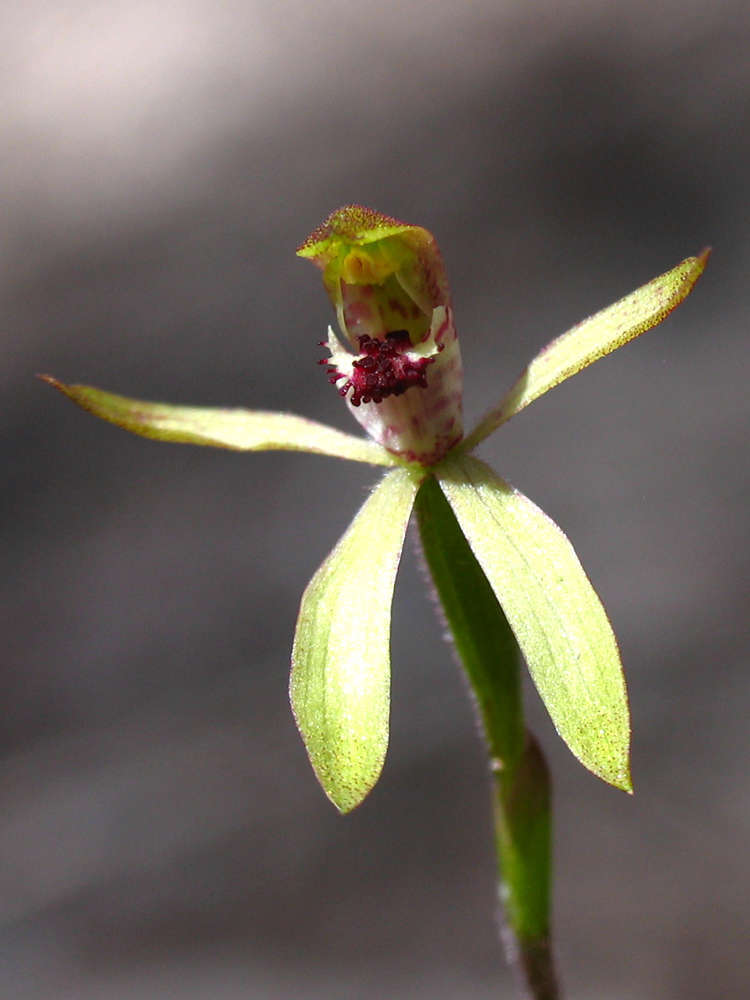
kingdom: Plantae
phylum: Tracheophyta
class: Liliopsida
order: Asparagales
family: Orchidaceae
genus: Caladenia
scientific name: Caladenia transitoria
